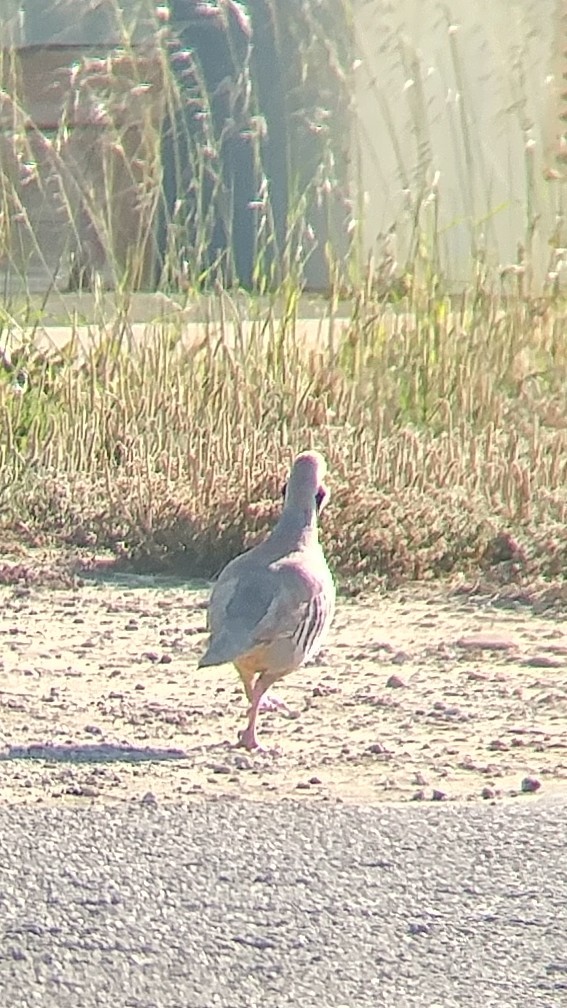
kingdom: Animalia
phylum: Chordata
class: Aves
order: Galliformes
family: Phasianidae
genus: Alectoris
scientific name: Alectoris chukar
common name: Chukar
